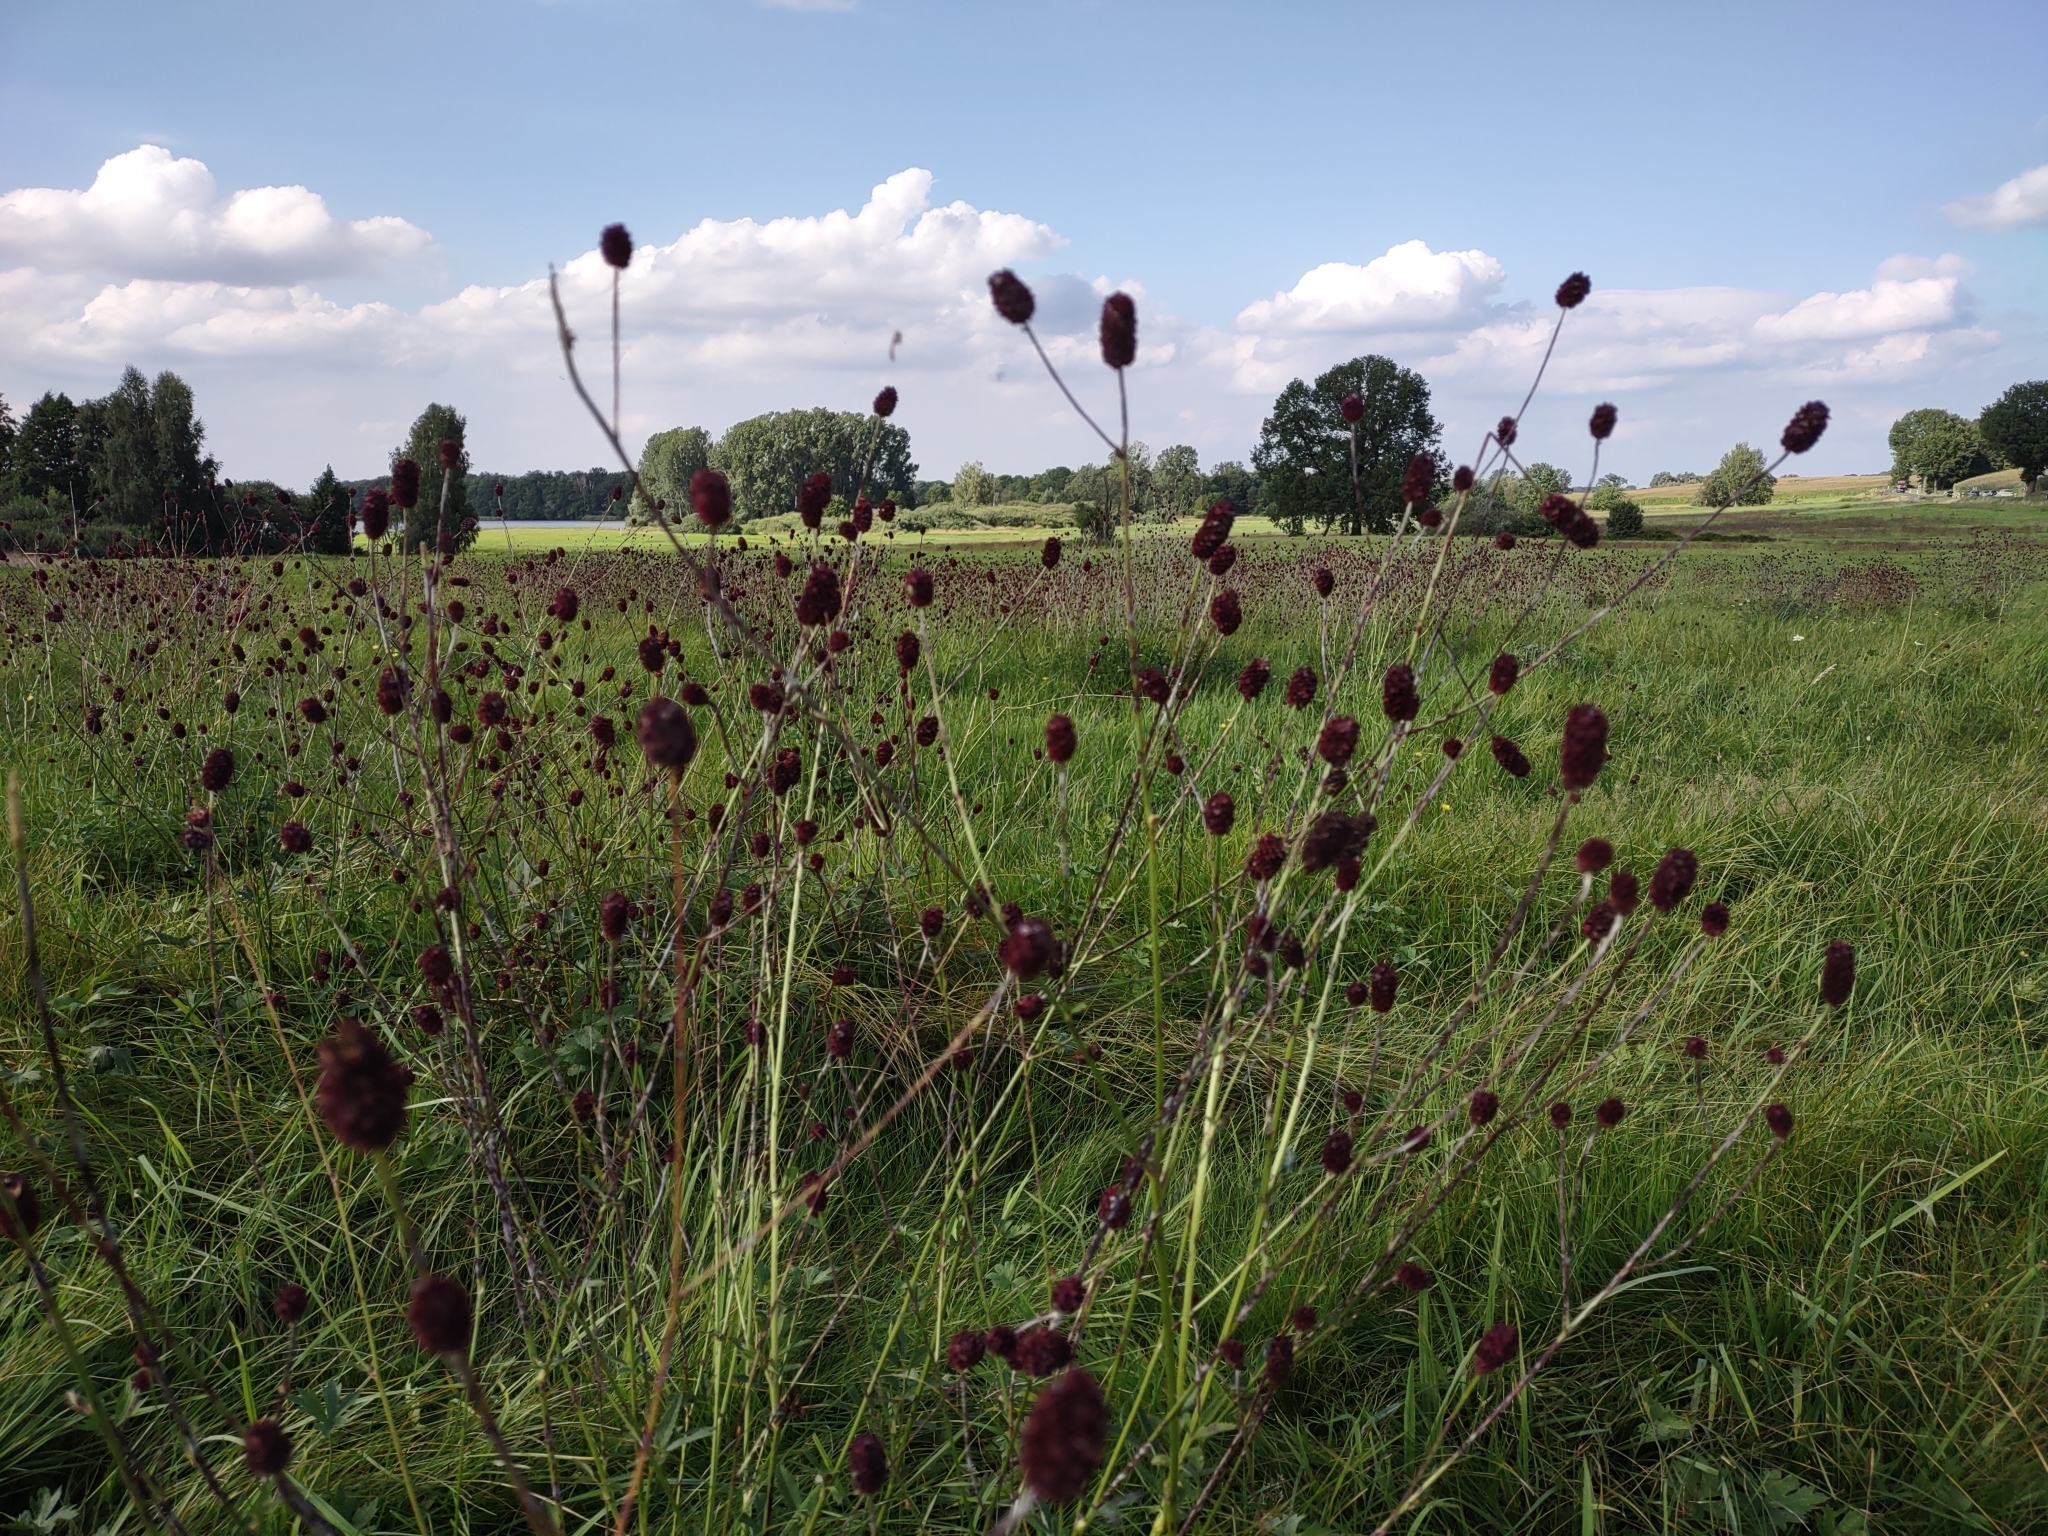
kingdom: Plantae
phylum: Tracheophyta
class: Magnoliopsida
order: Rosales
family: Rosaceae
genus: Sanguisorba
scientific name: Sanguisorba officinalis
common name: Great burnet
